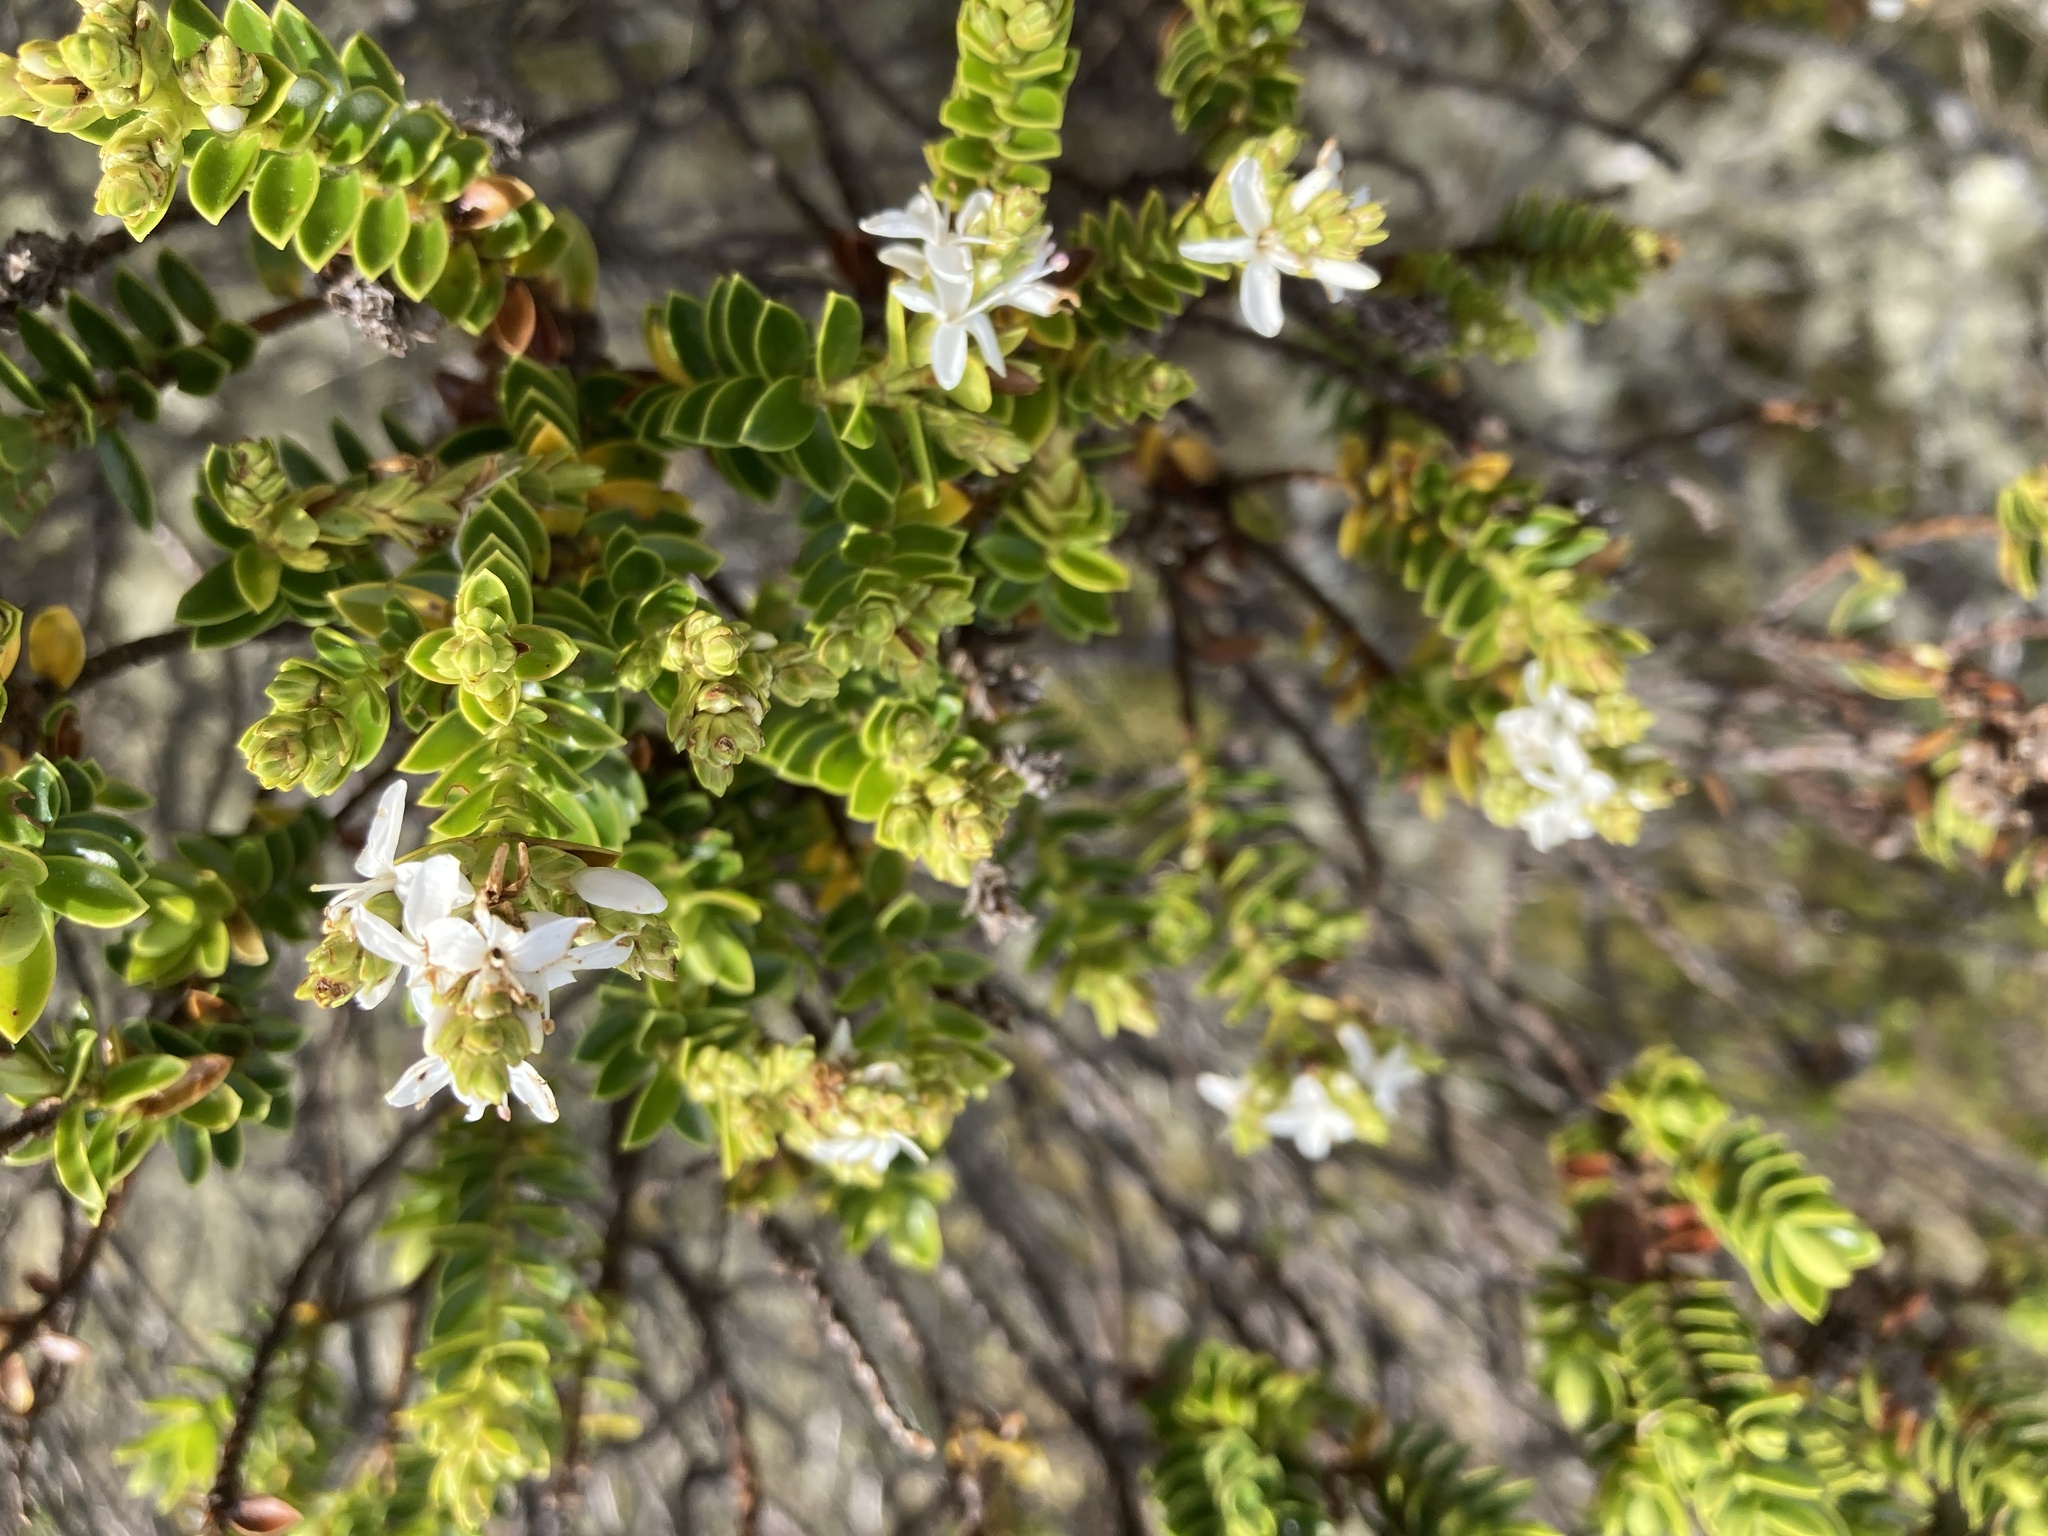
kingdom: Plantae
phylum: Tracheophyta
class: Magnoliopsida
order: Lamiales
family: Plantaginaceae
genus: Veronica
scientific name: Veronica odora
